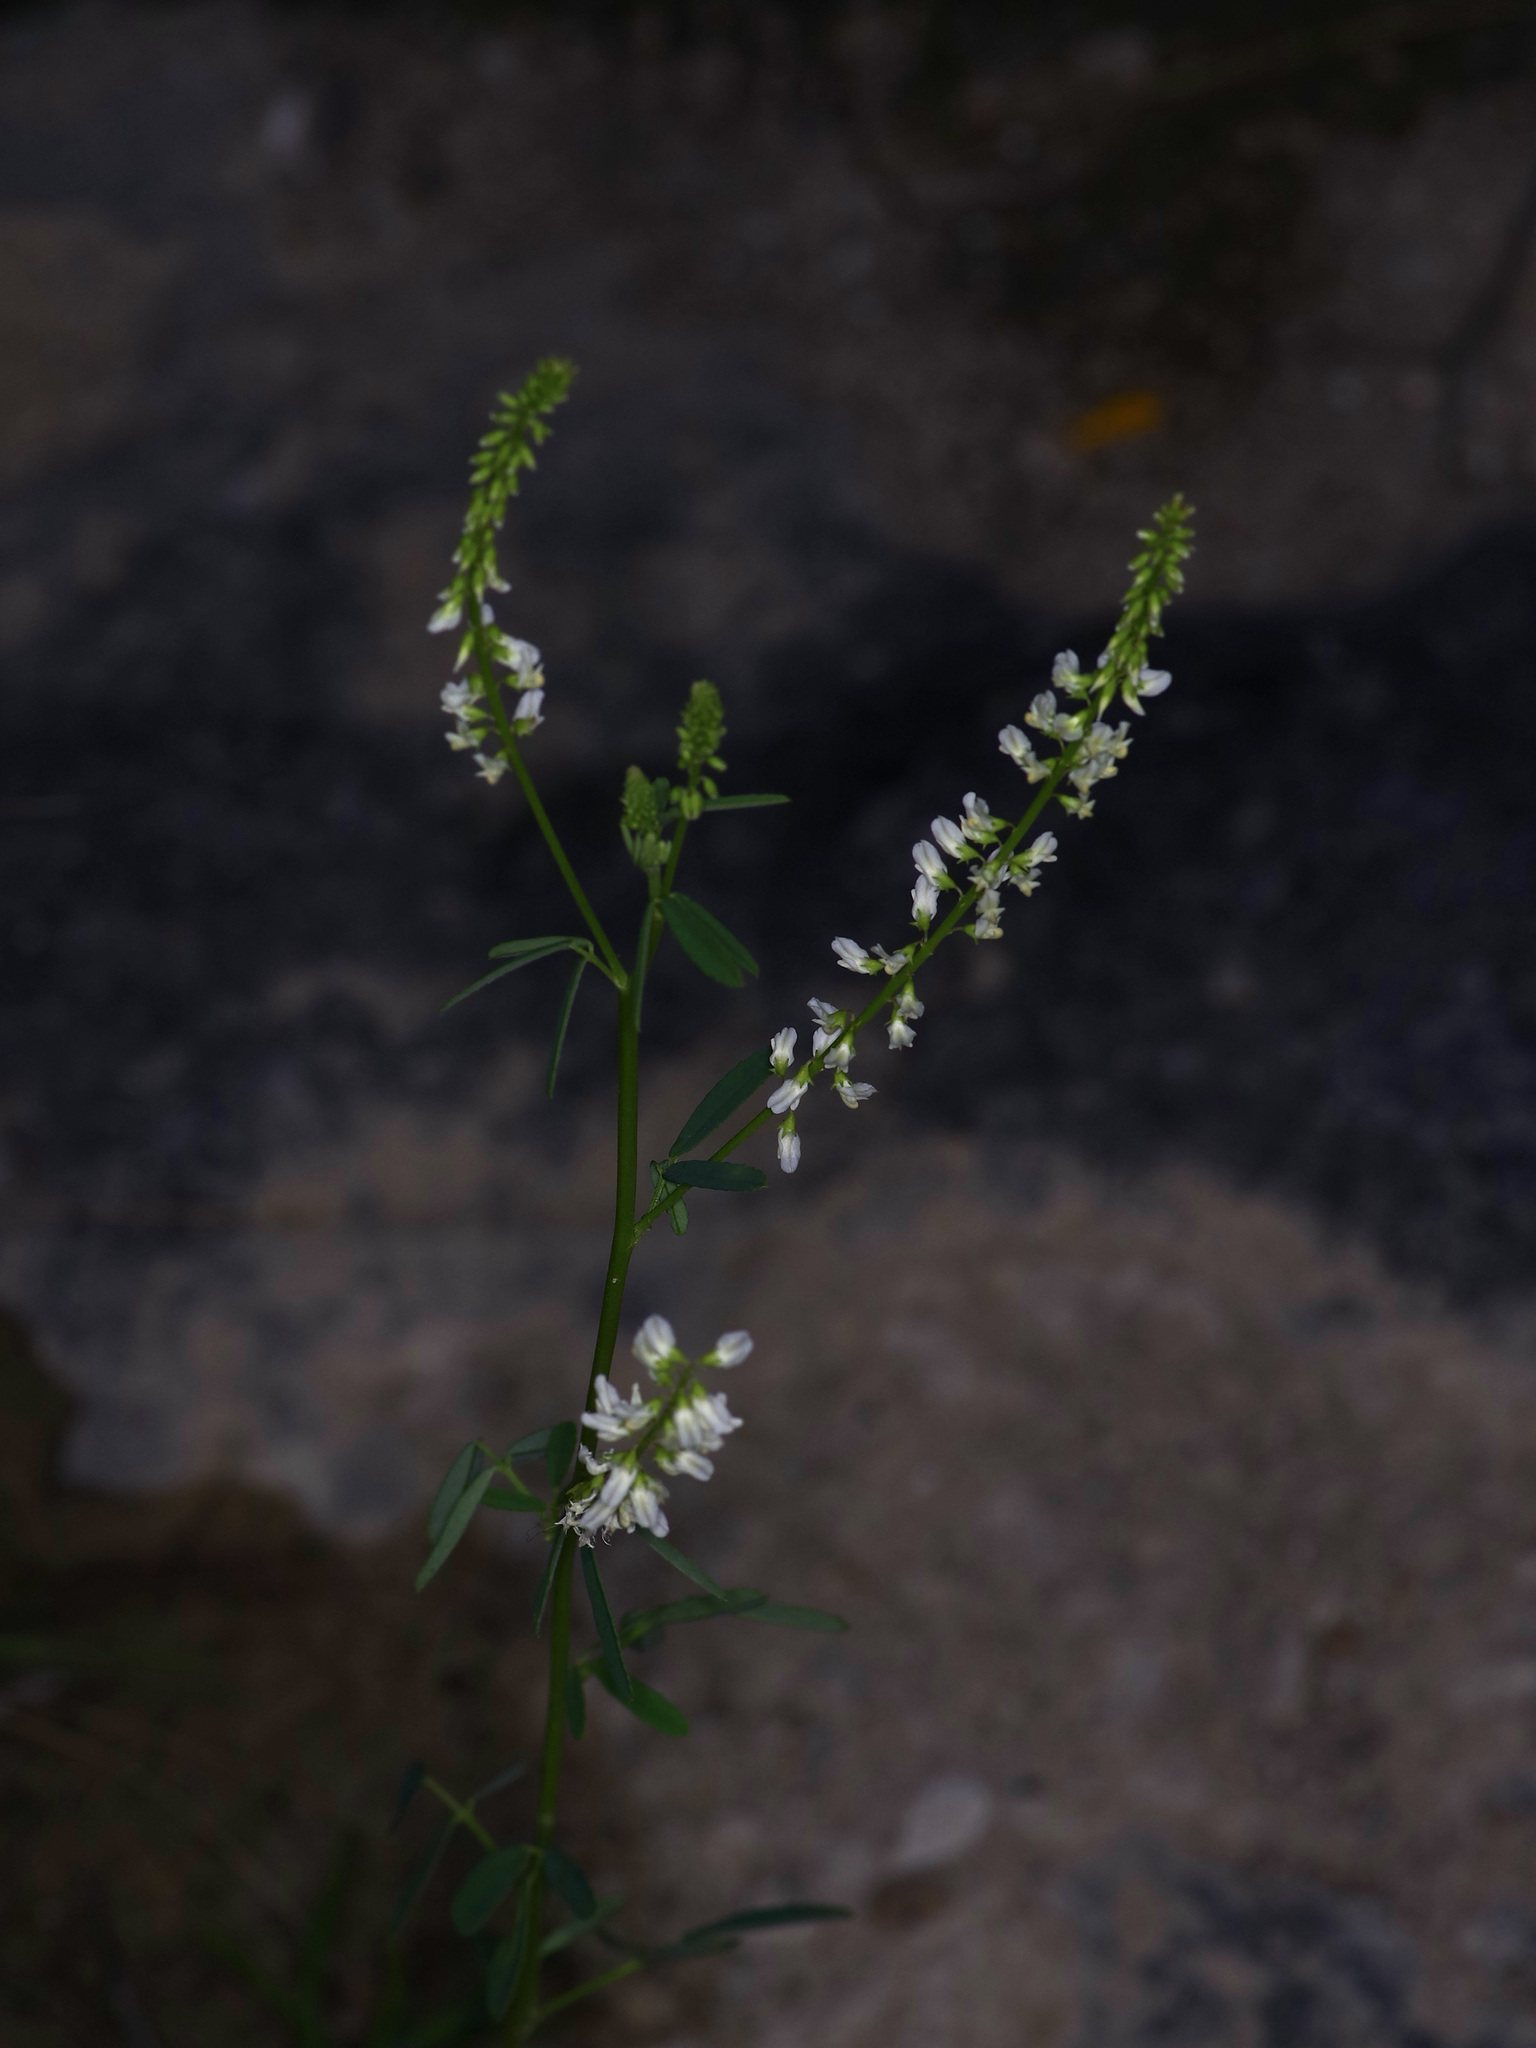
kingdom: Plantae
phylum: Tracheophyta
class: Magnoliopsida
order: Fabales
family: Fabaceae
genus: Melilotus
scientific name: Melilotus albus
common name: White melilot
